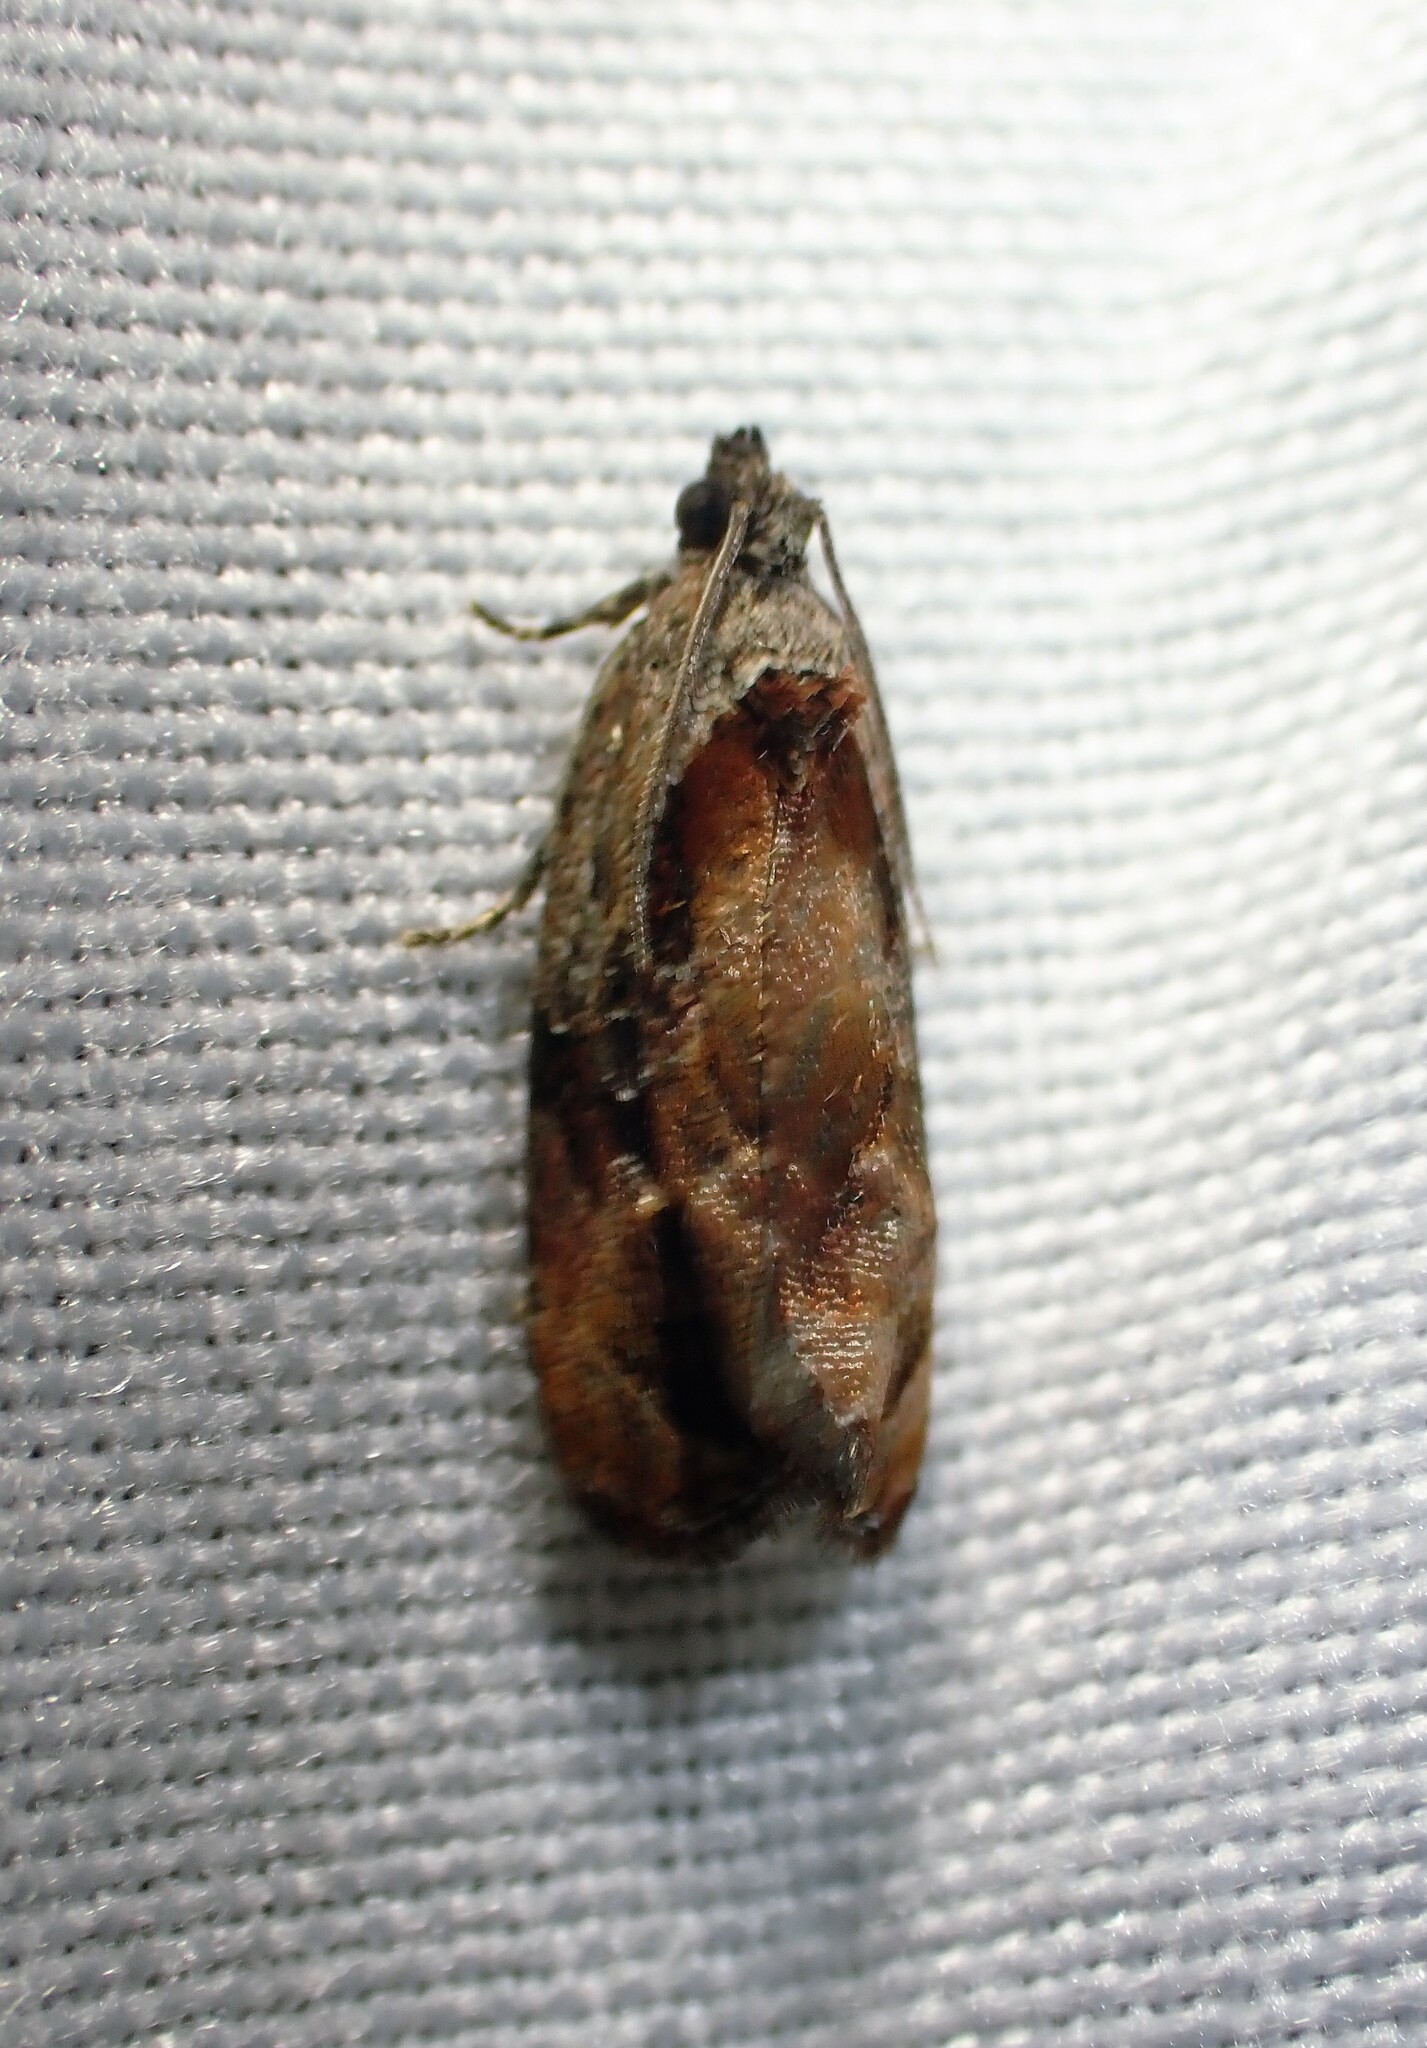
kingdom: Animalia
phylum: Arthropoda
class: Insecta
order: Lepidoptera
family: Tortricidae
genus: Zomaria
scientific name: Zomaria interruptolineana
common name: Broken-lined zomaria moth
